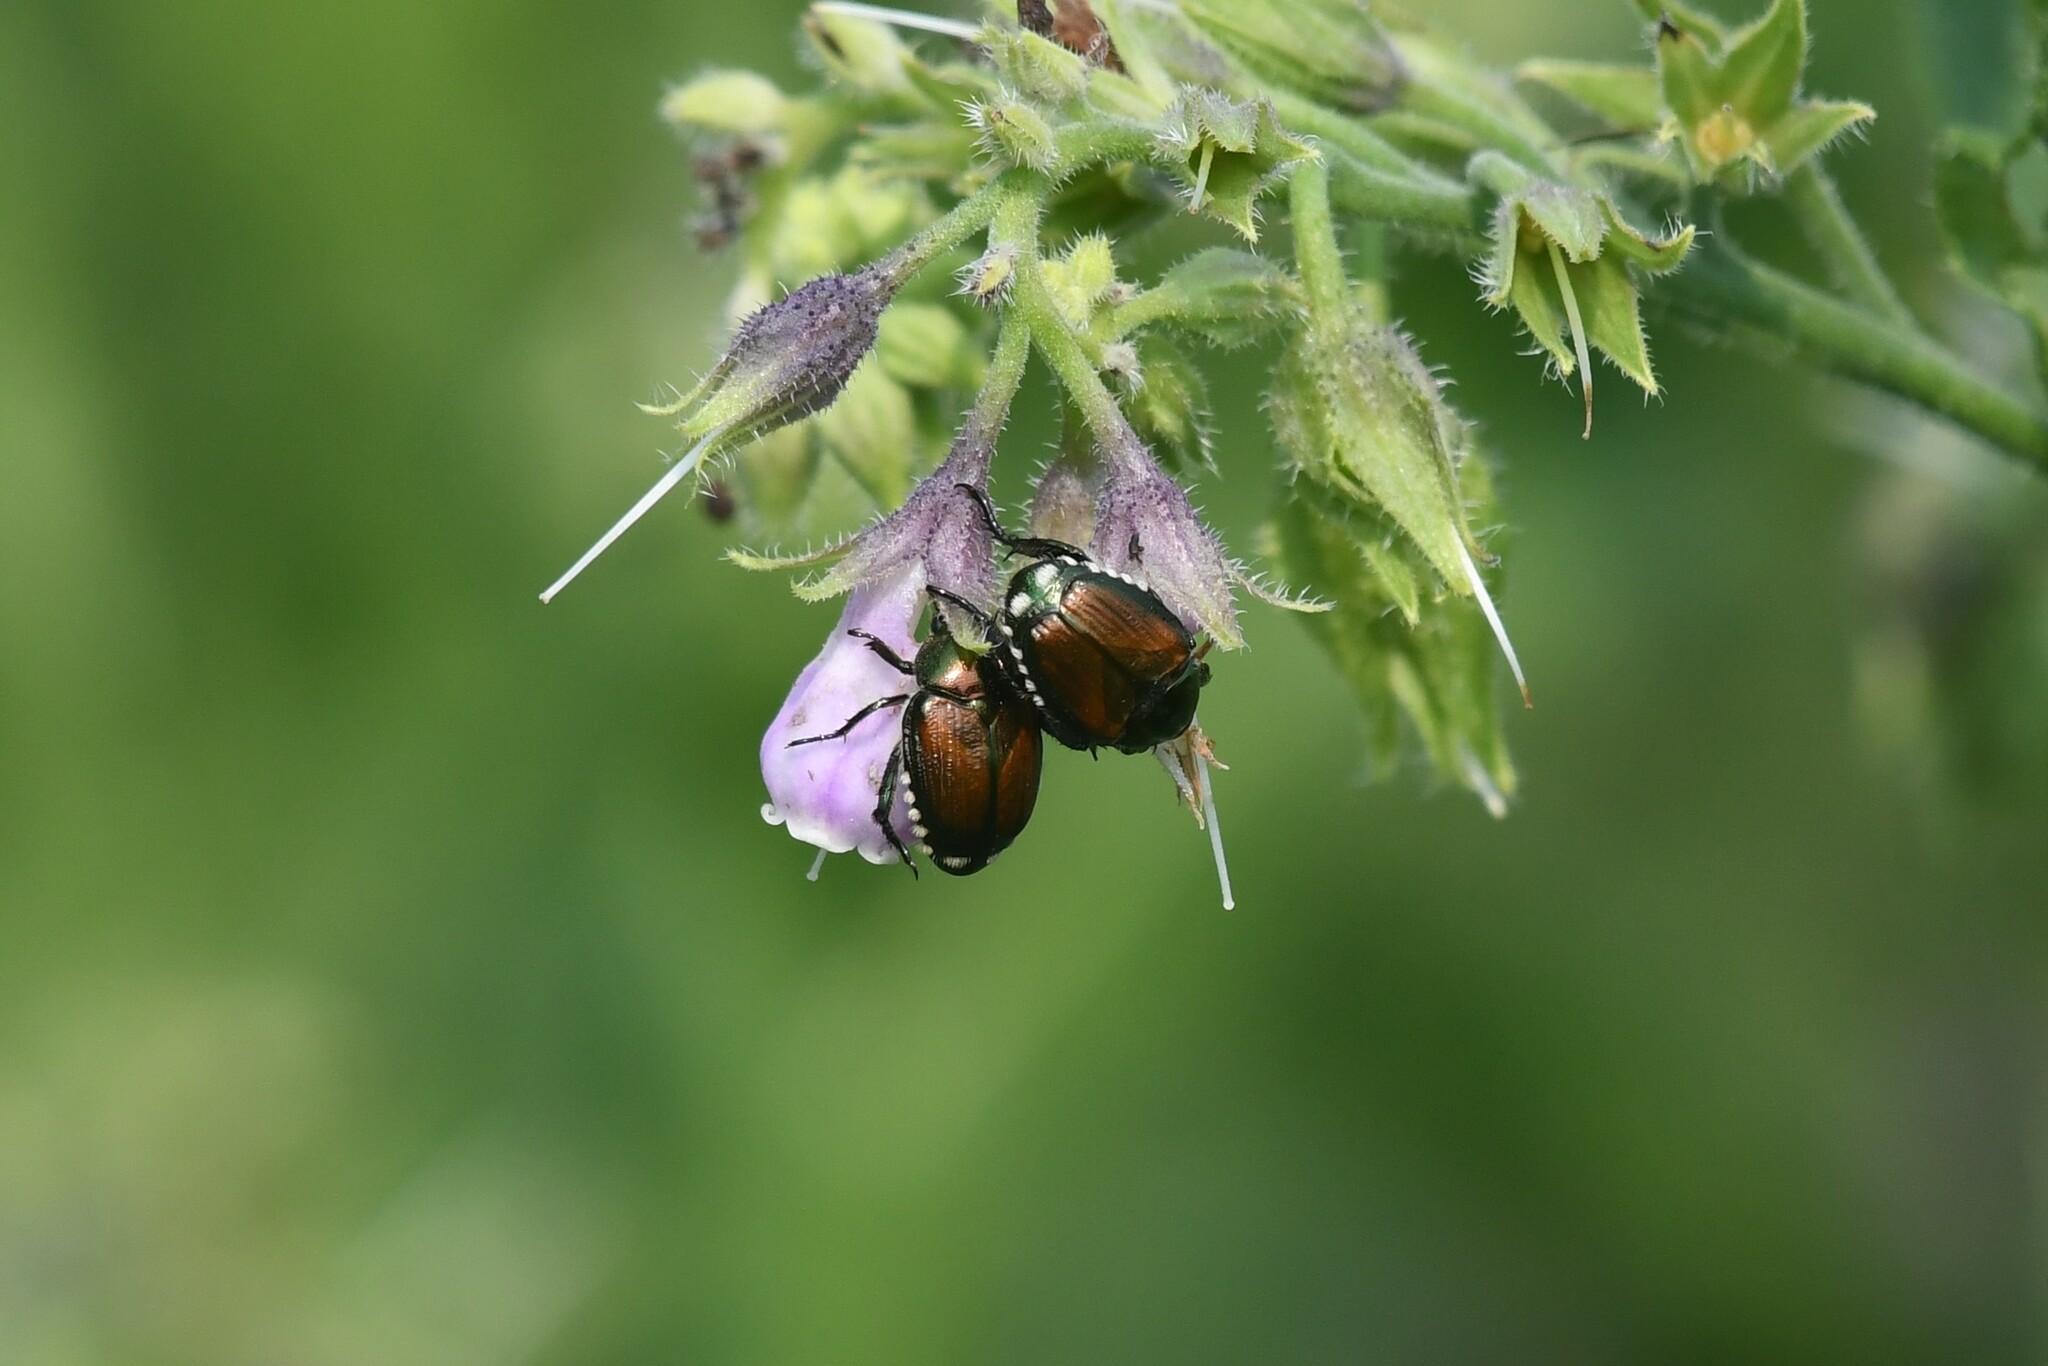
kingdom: Animalia
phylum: Arthropoda
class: Insecta
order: Coleoptera
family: Scarabaeidae
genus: Popillia
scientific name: Popillia japonica
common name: Japanese beetle
